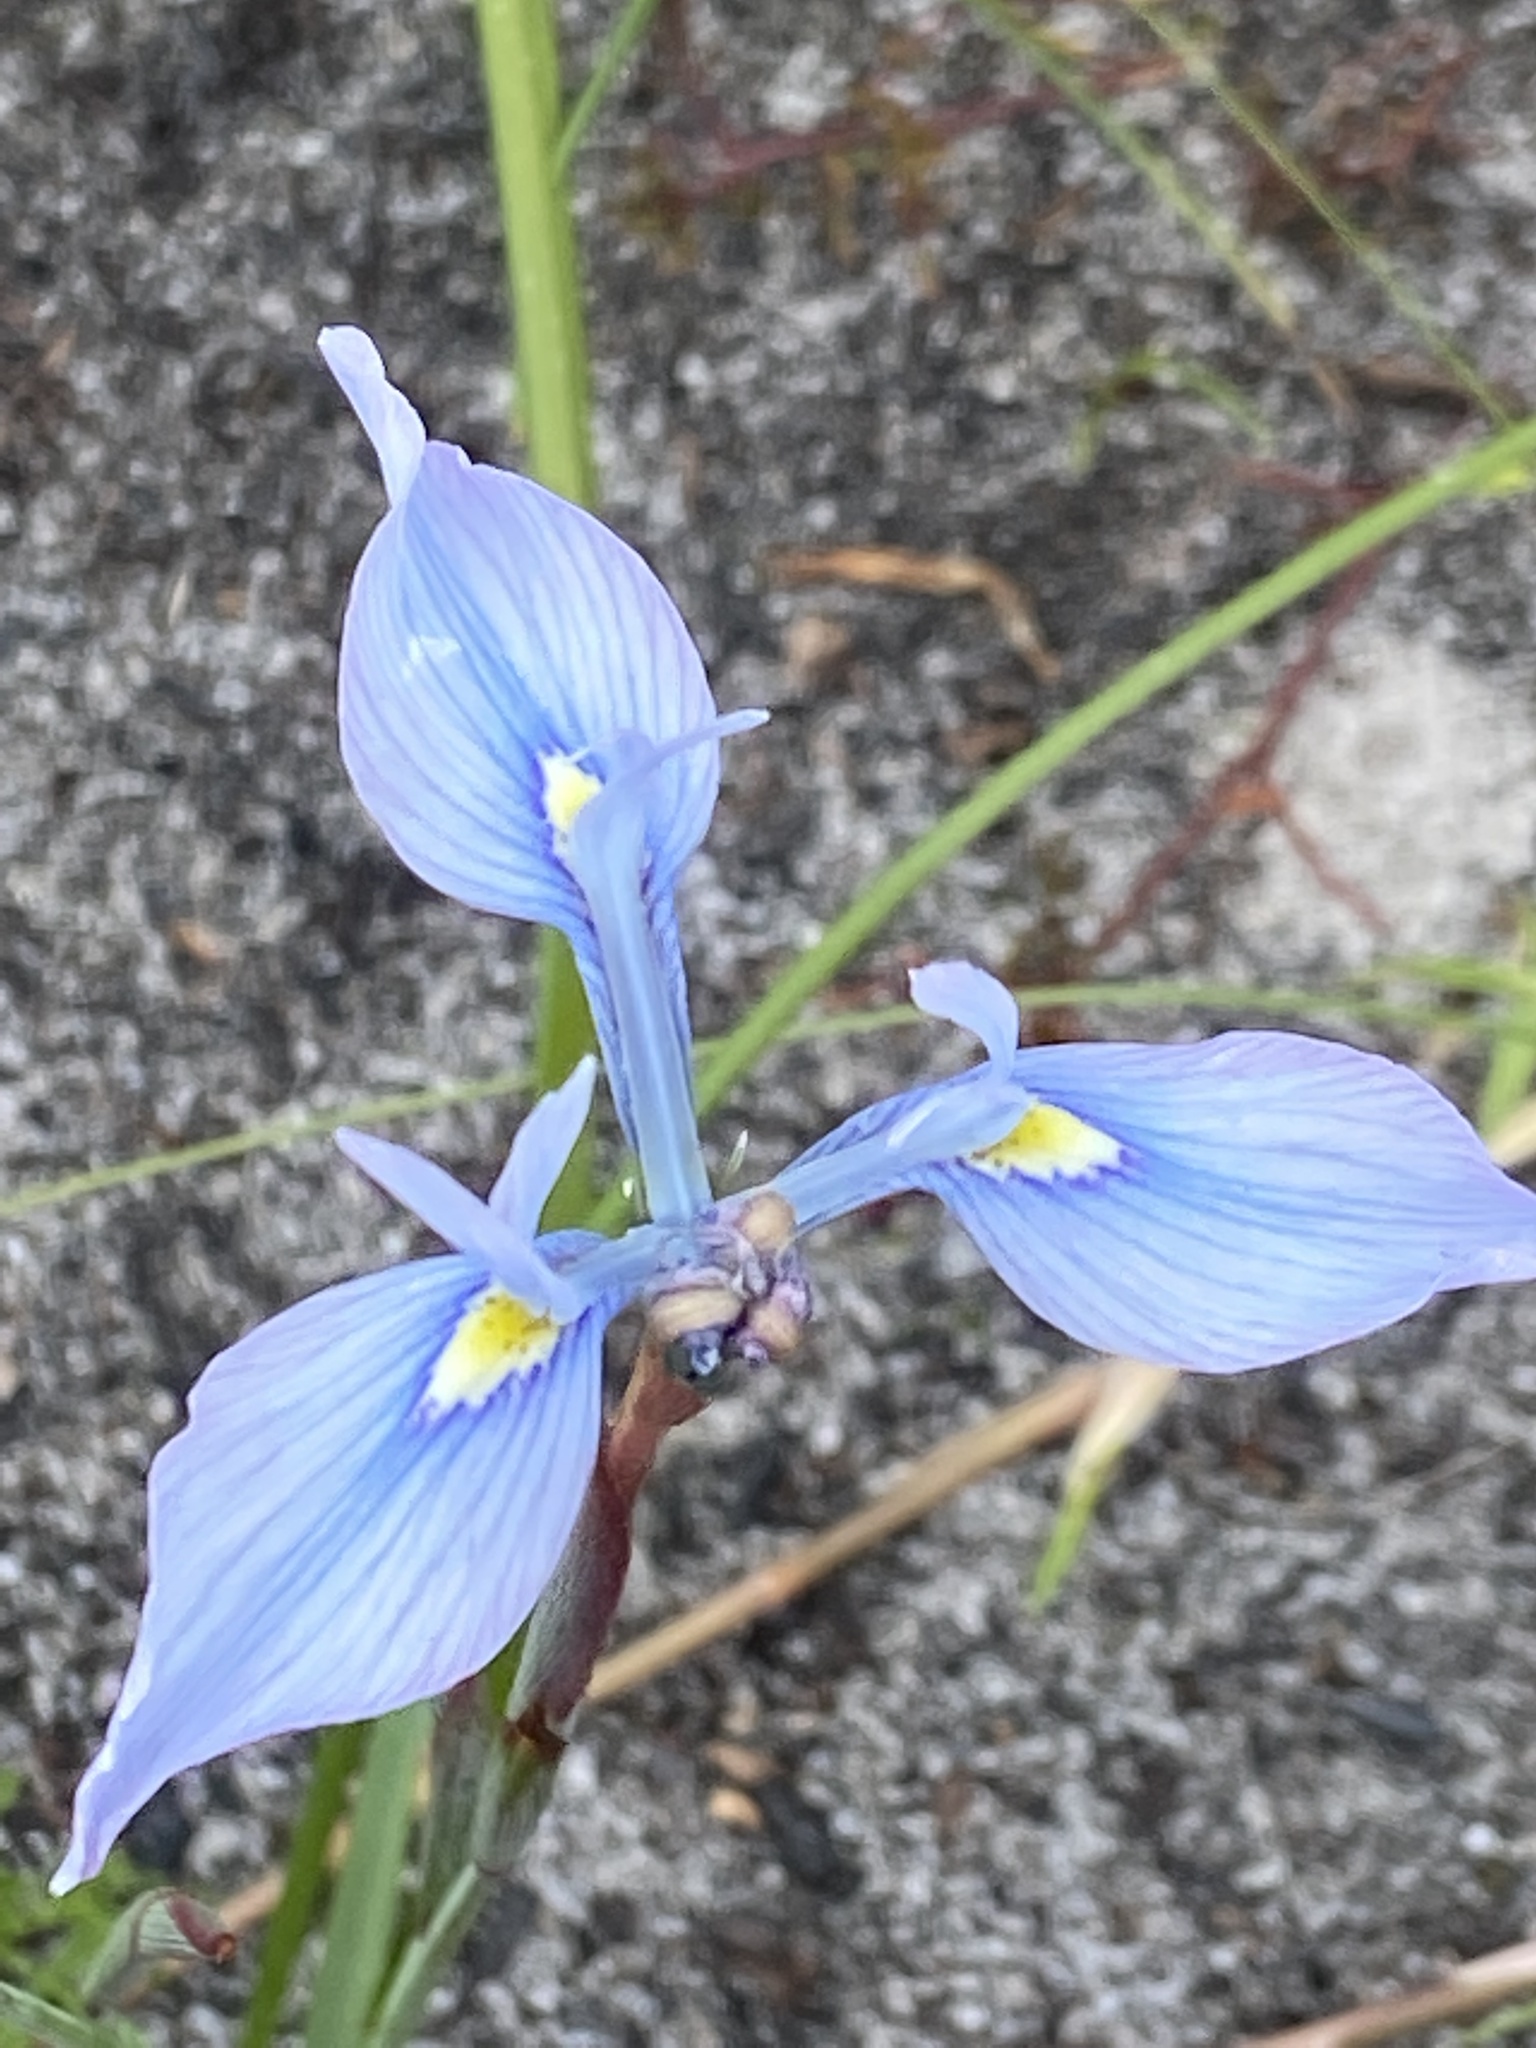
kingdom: Plantae
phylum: Tracheophyta
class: Liliopsida
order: Asparagales
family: Iridaceae
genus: Moraea
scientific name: Moraea tripetala
